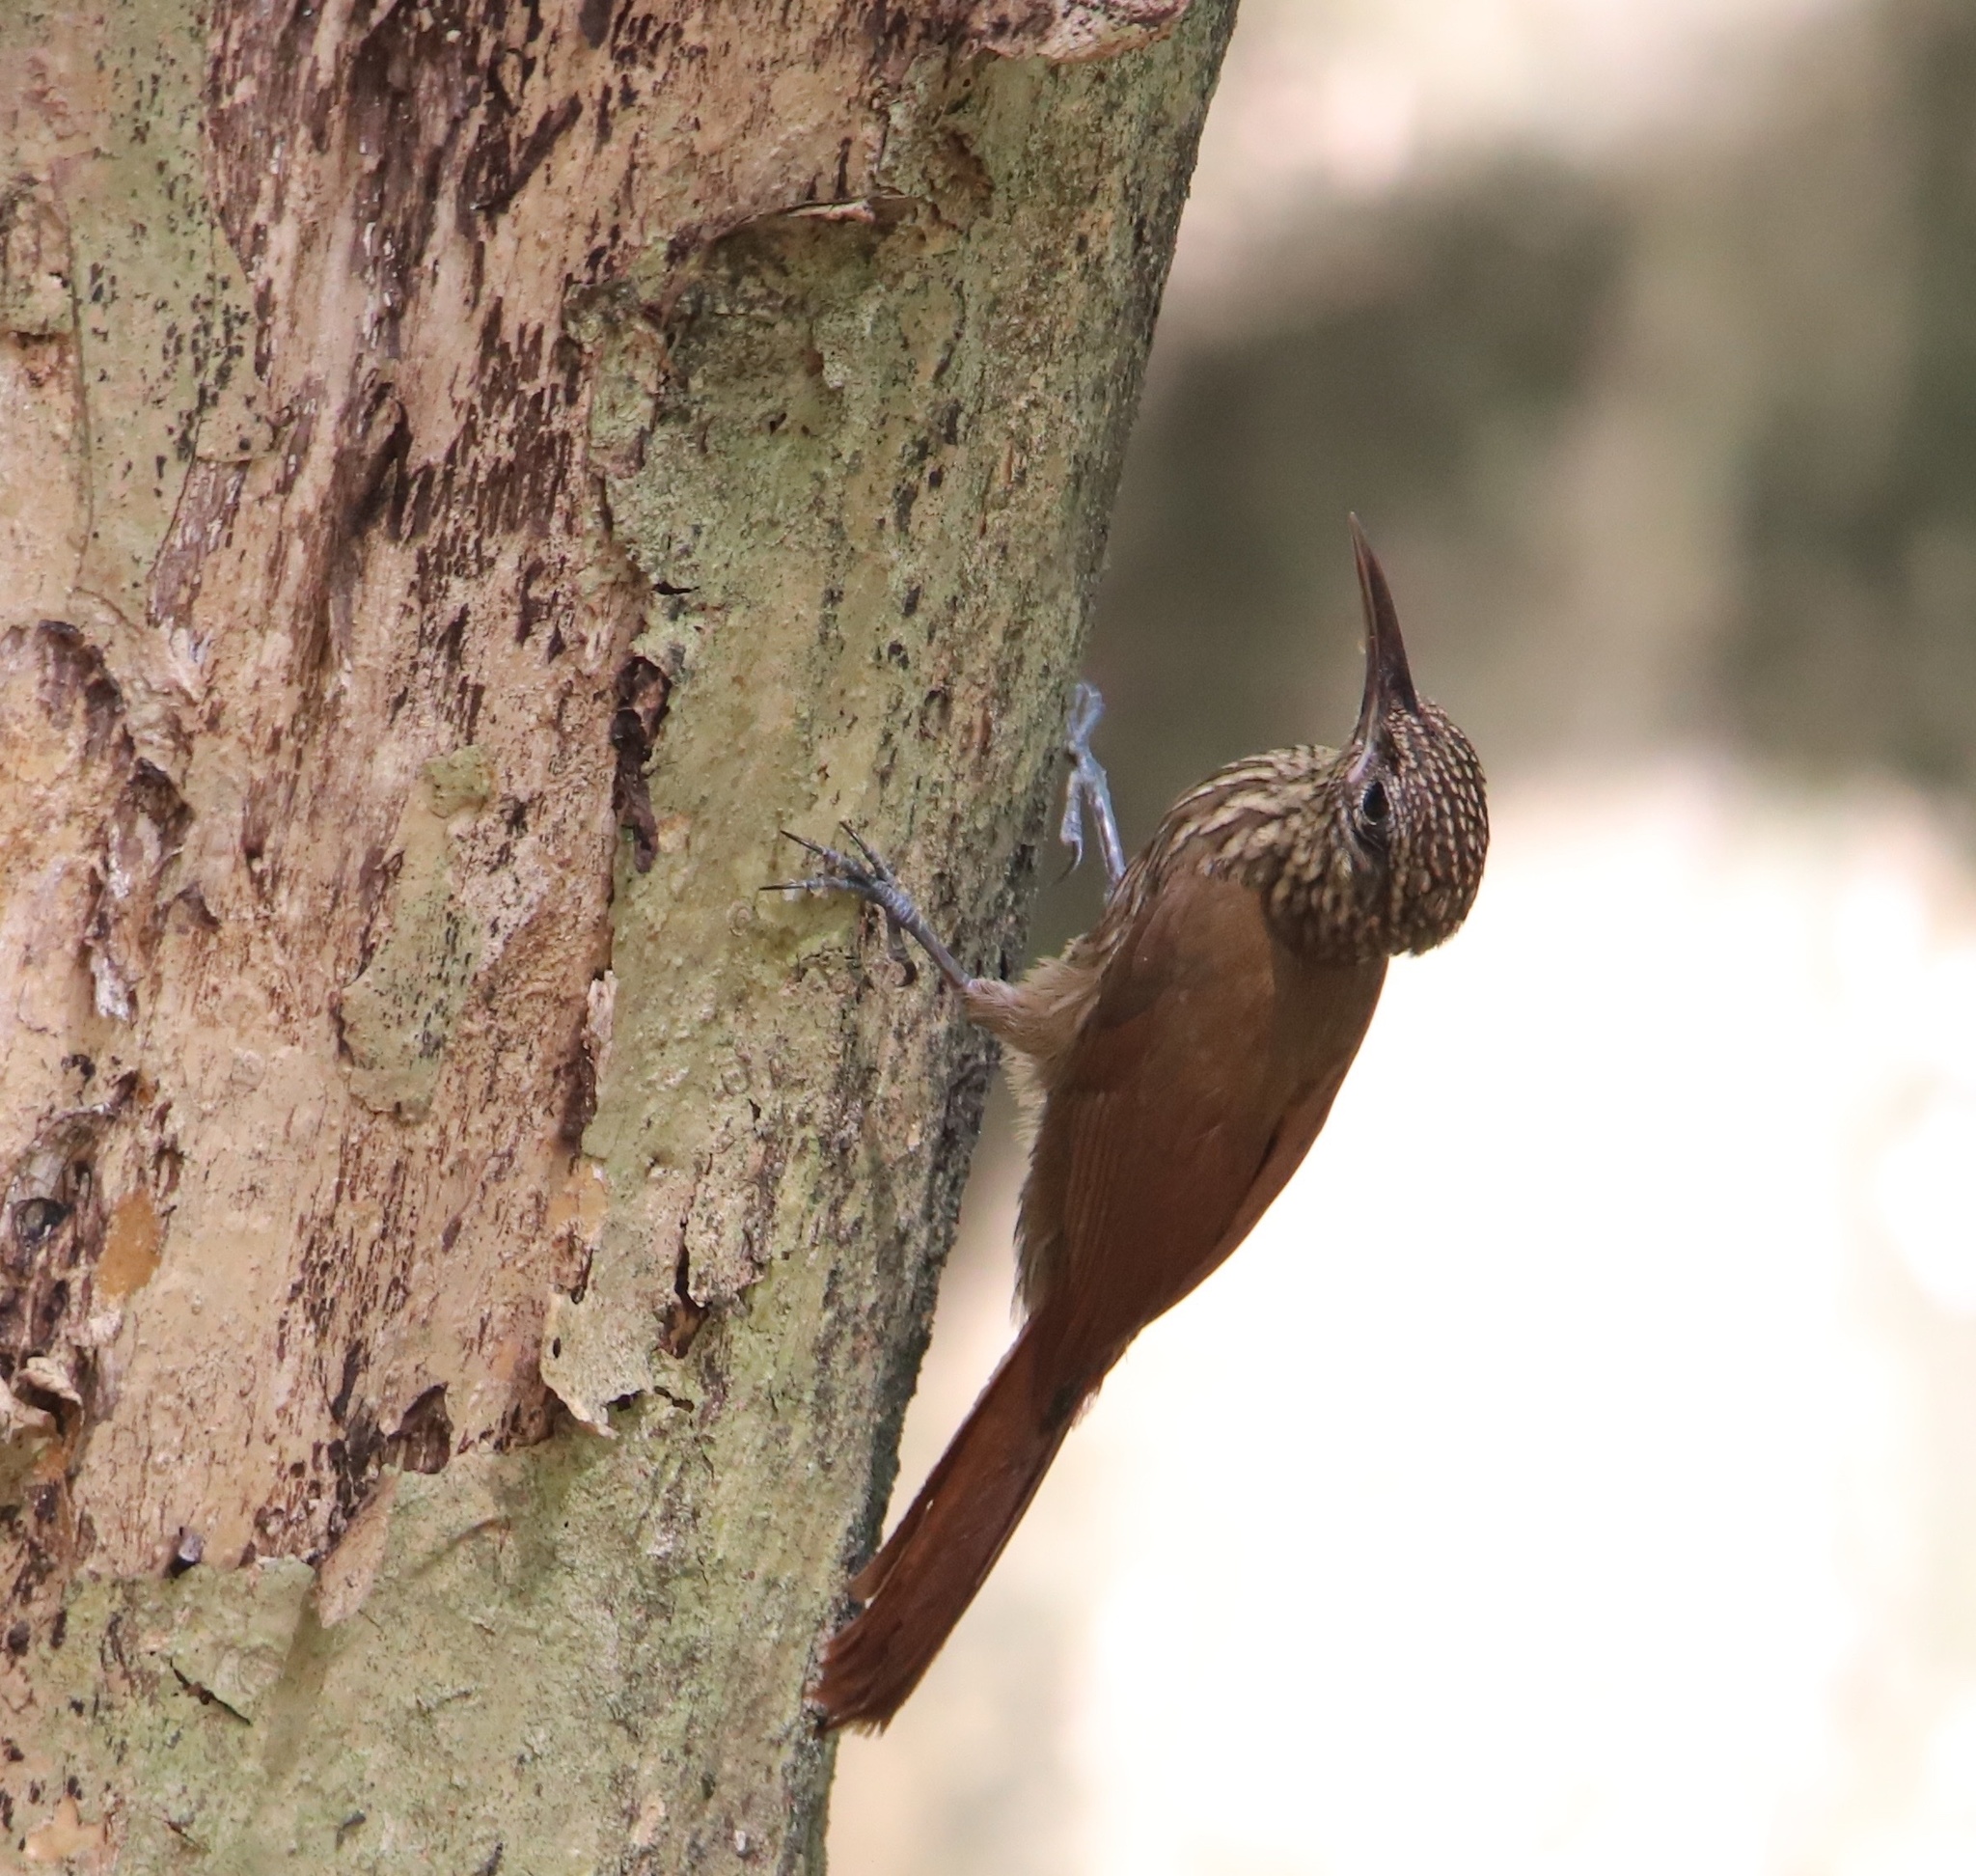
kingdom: Animalia
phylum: Chordata
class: Aves
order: Passeriformes
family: Furnariidae
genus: Xiphorhynchus
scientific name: Xiphorhynchus susurrans
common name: Cocoa woodcreeper
